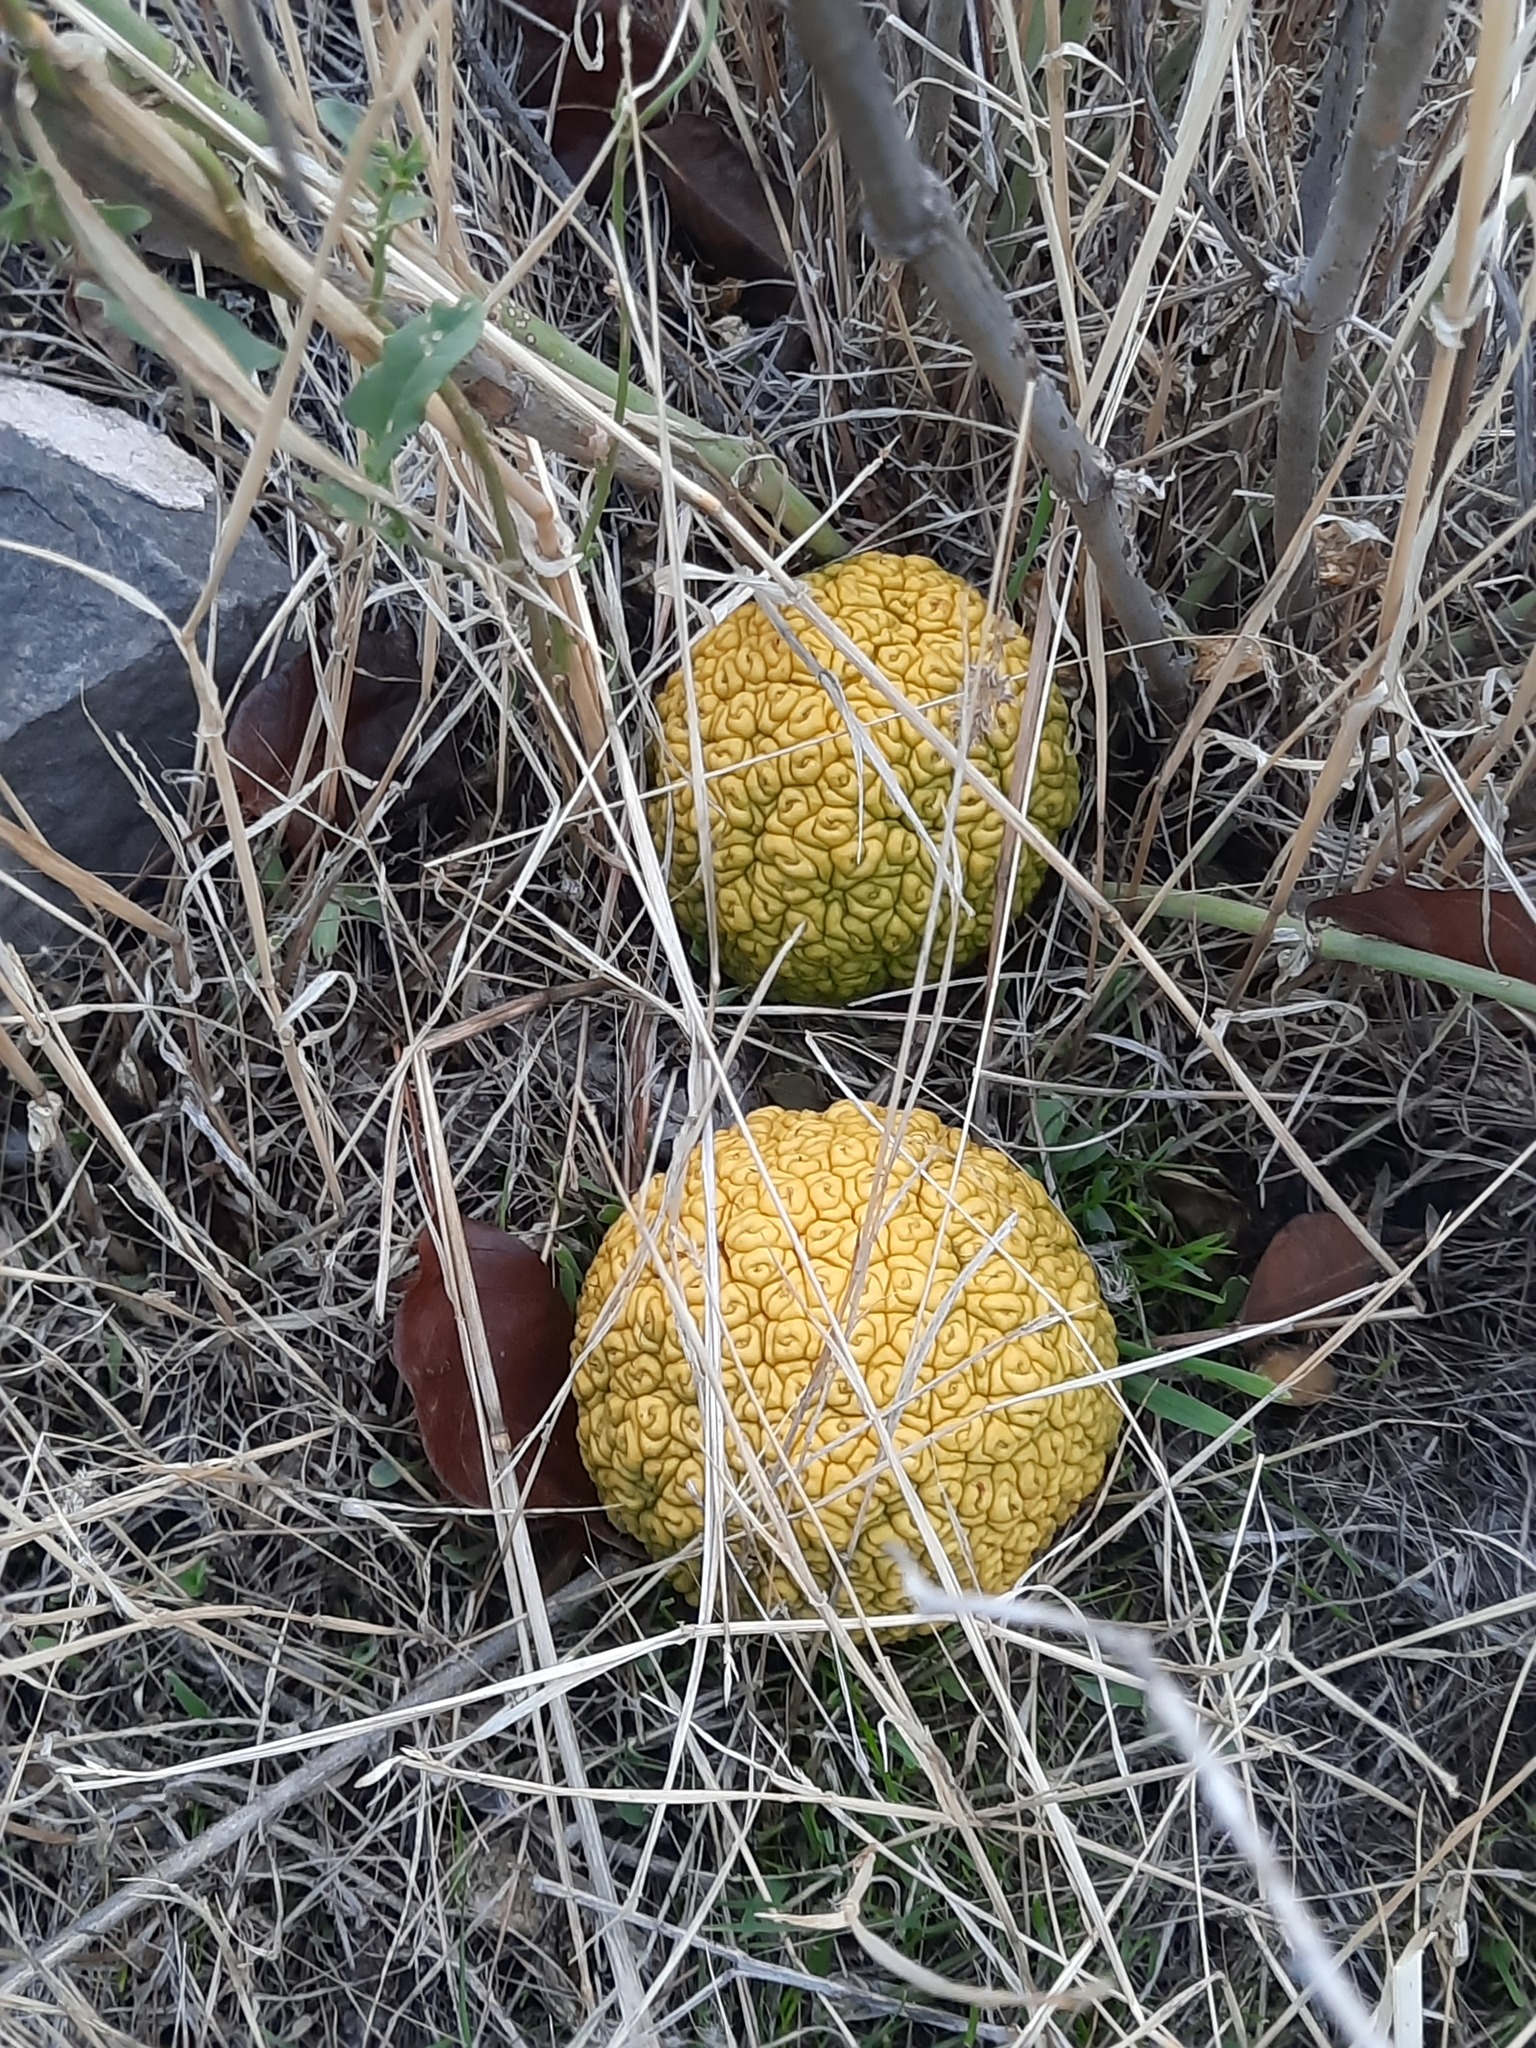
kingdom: Plantae
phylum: Tracheophyta
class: Magnoliopsida
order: Rosales
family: Moraceae
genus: Maclura
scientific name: Maclura pomifera
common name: Osage-orange
